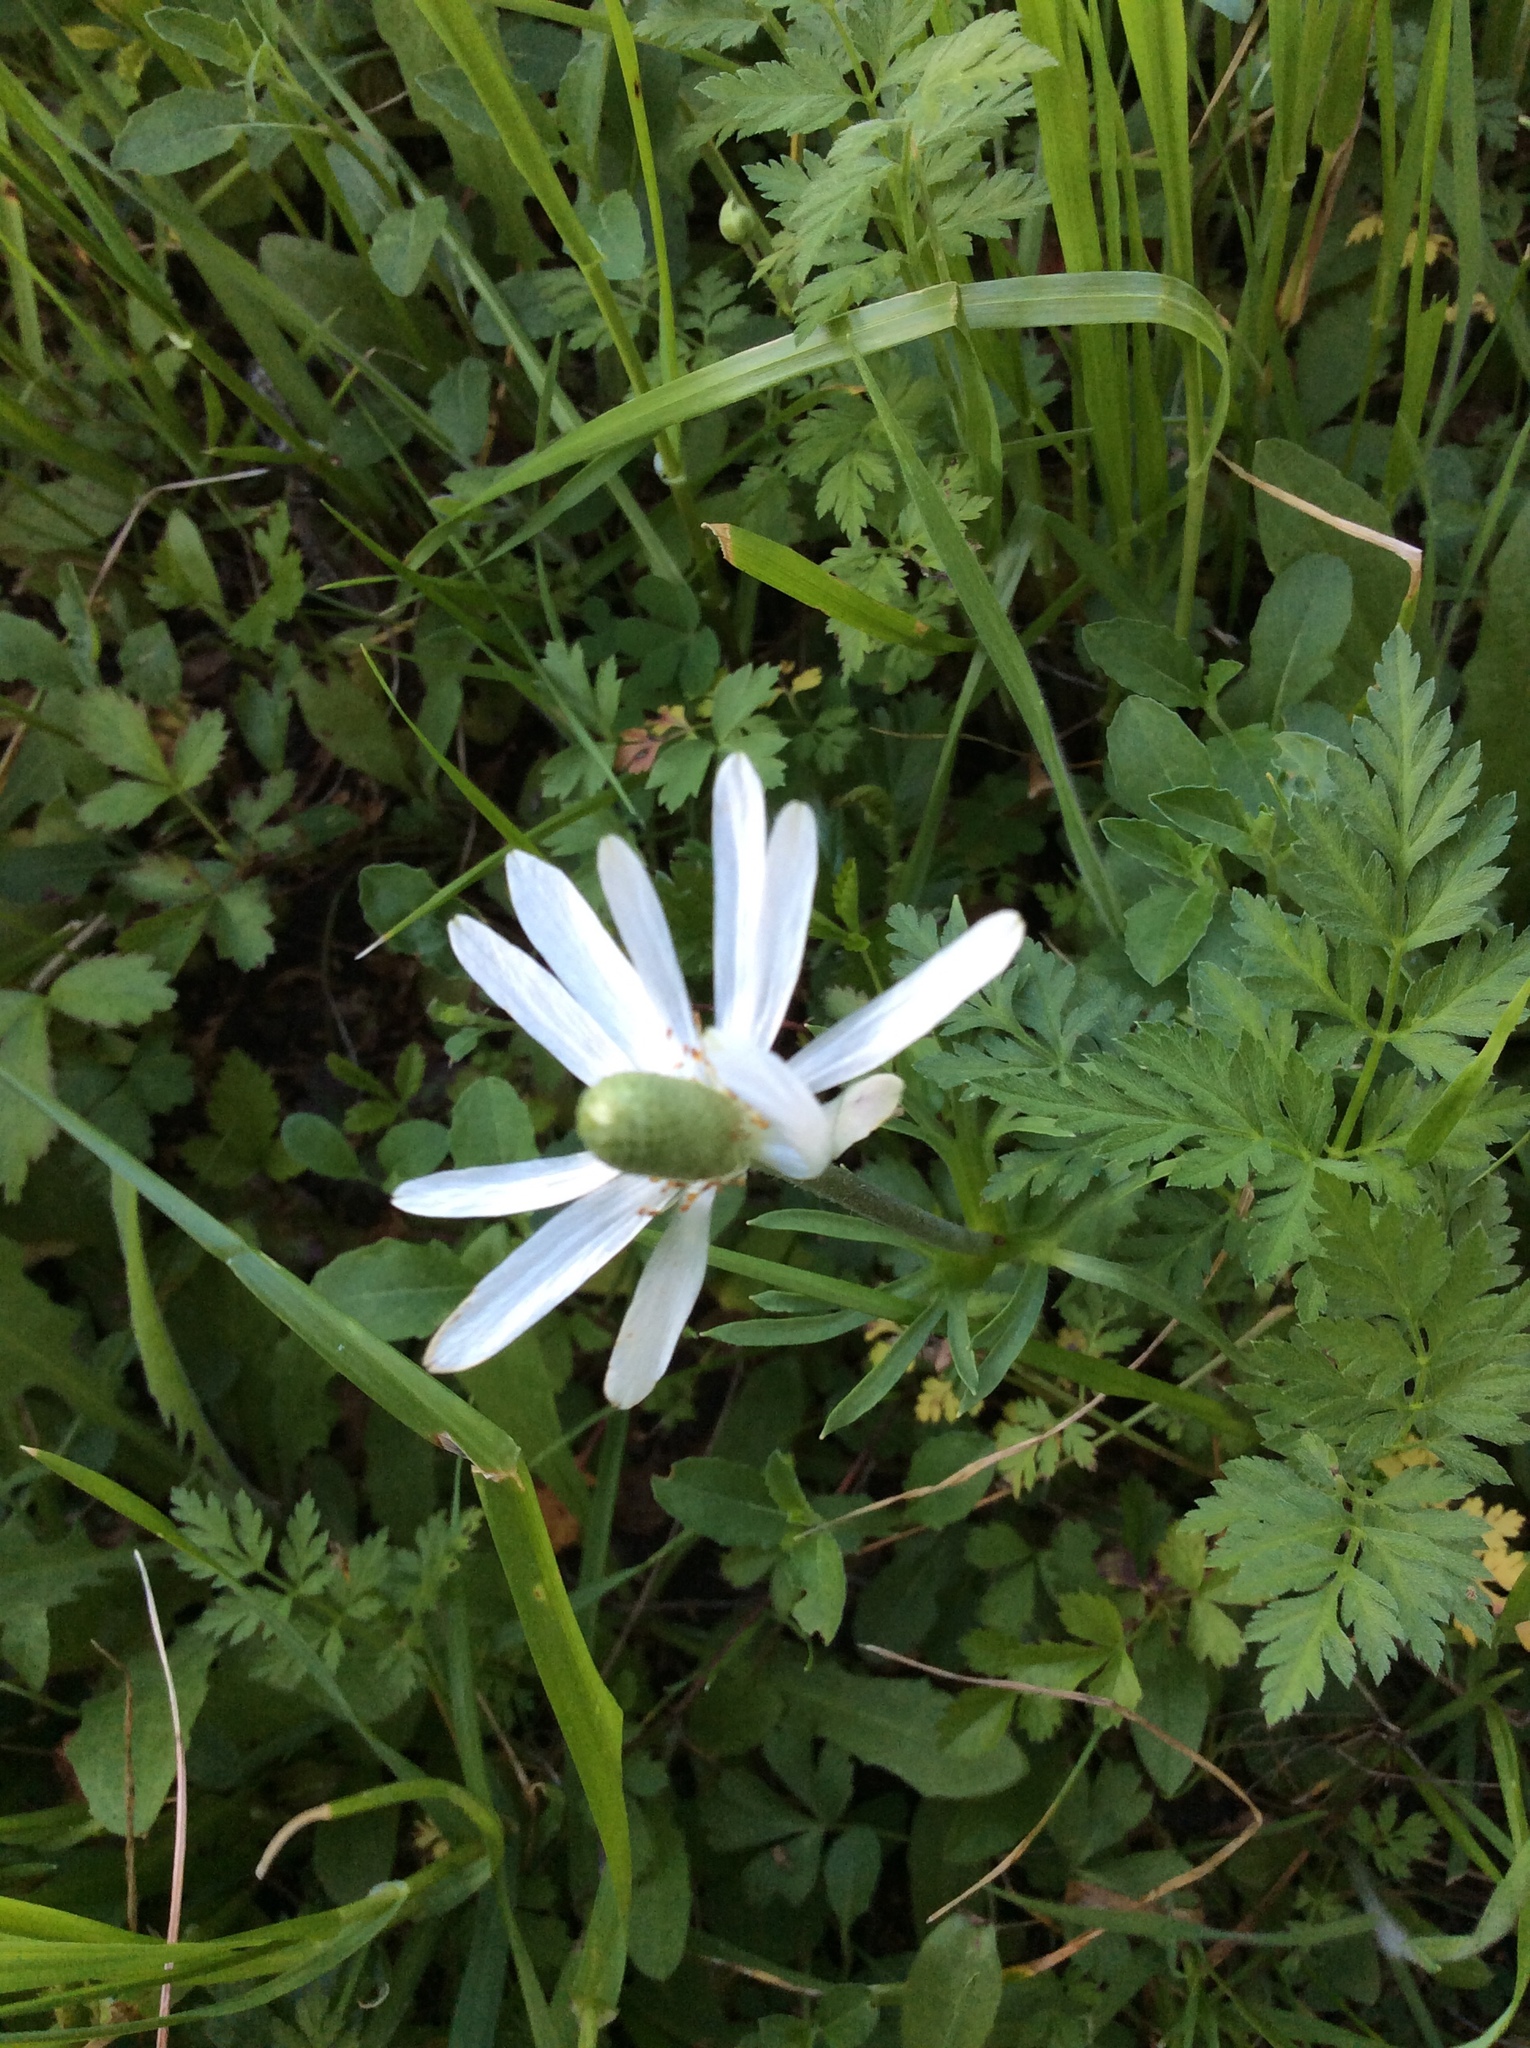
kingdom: Plantae
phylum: Tracheophyta
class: Magnoliopsida
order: Ranunculales
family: Ranunculaceae
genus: Anemone
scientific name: Anemone berlandieri
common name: Ten-petal anemone
